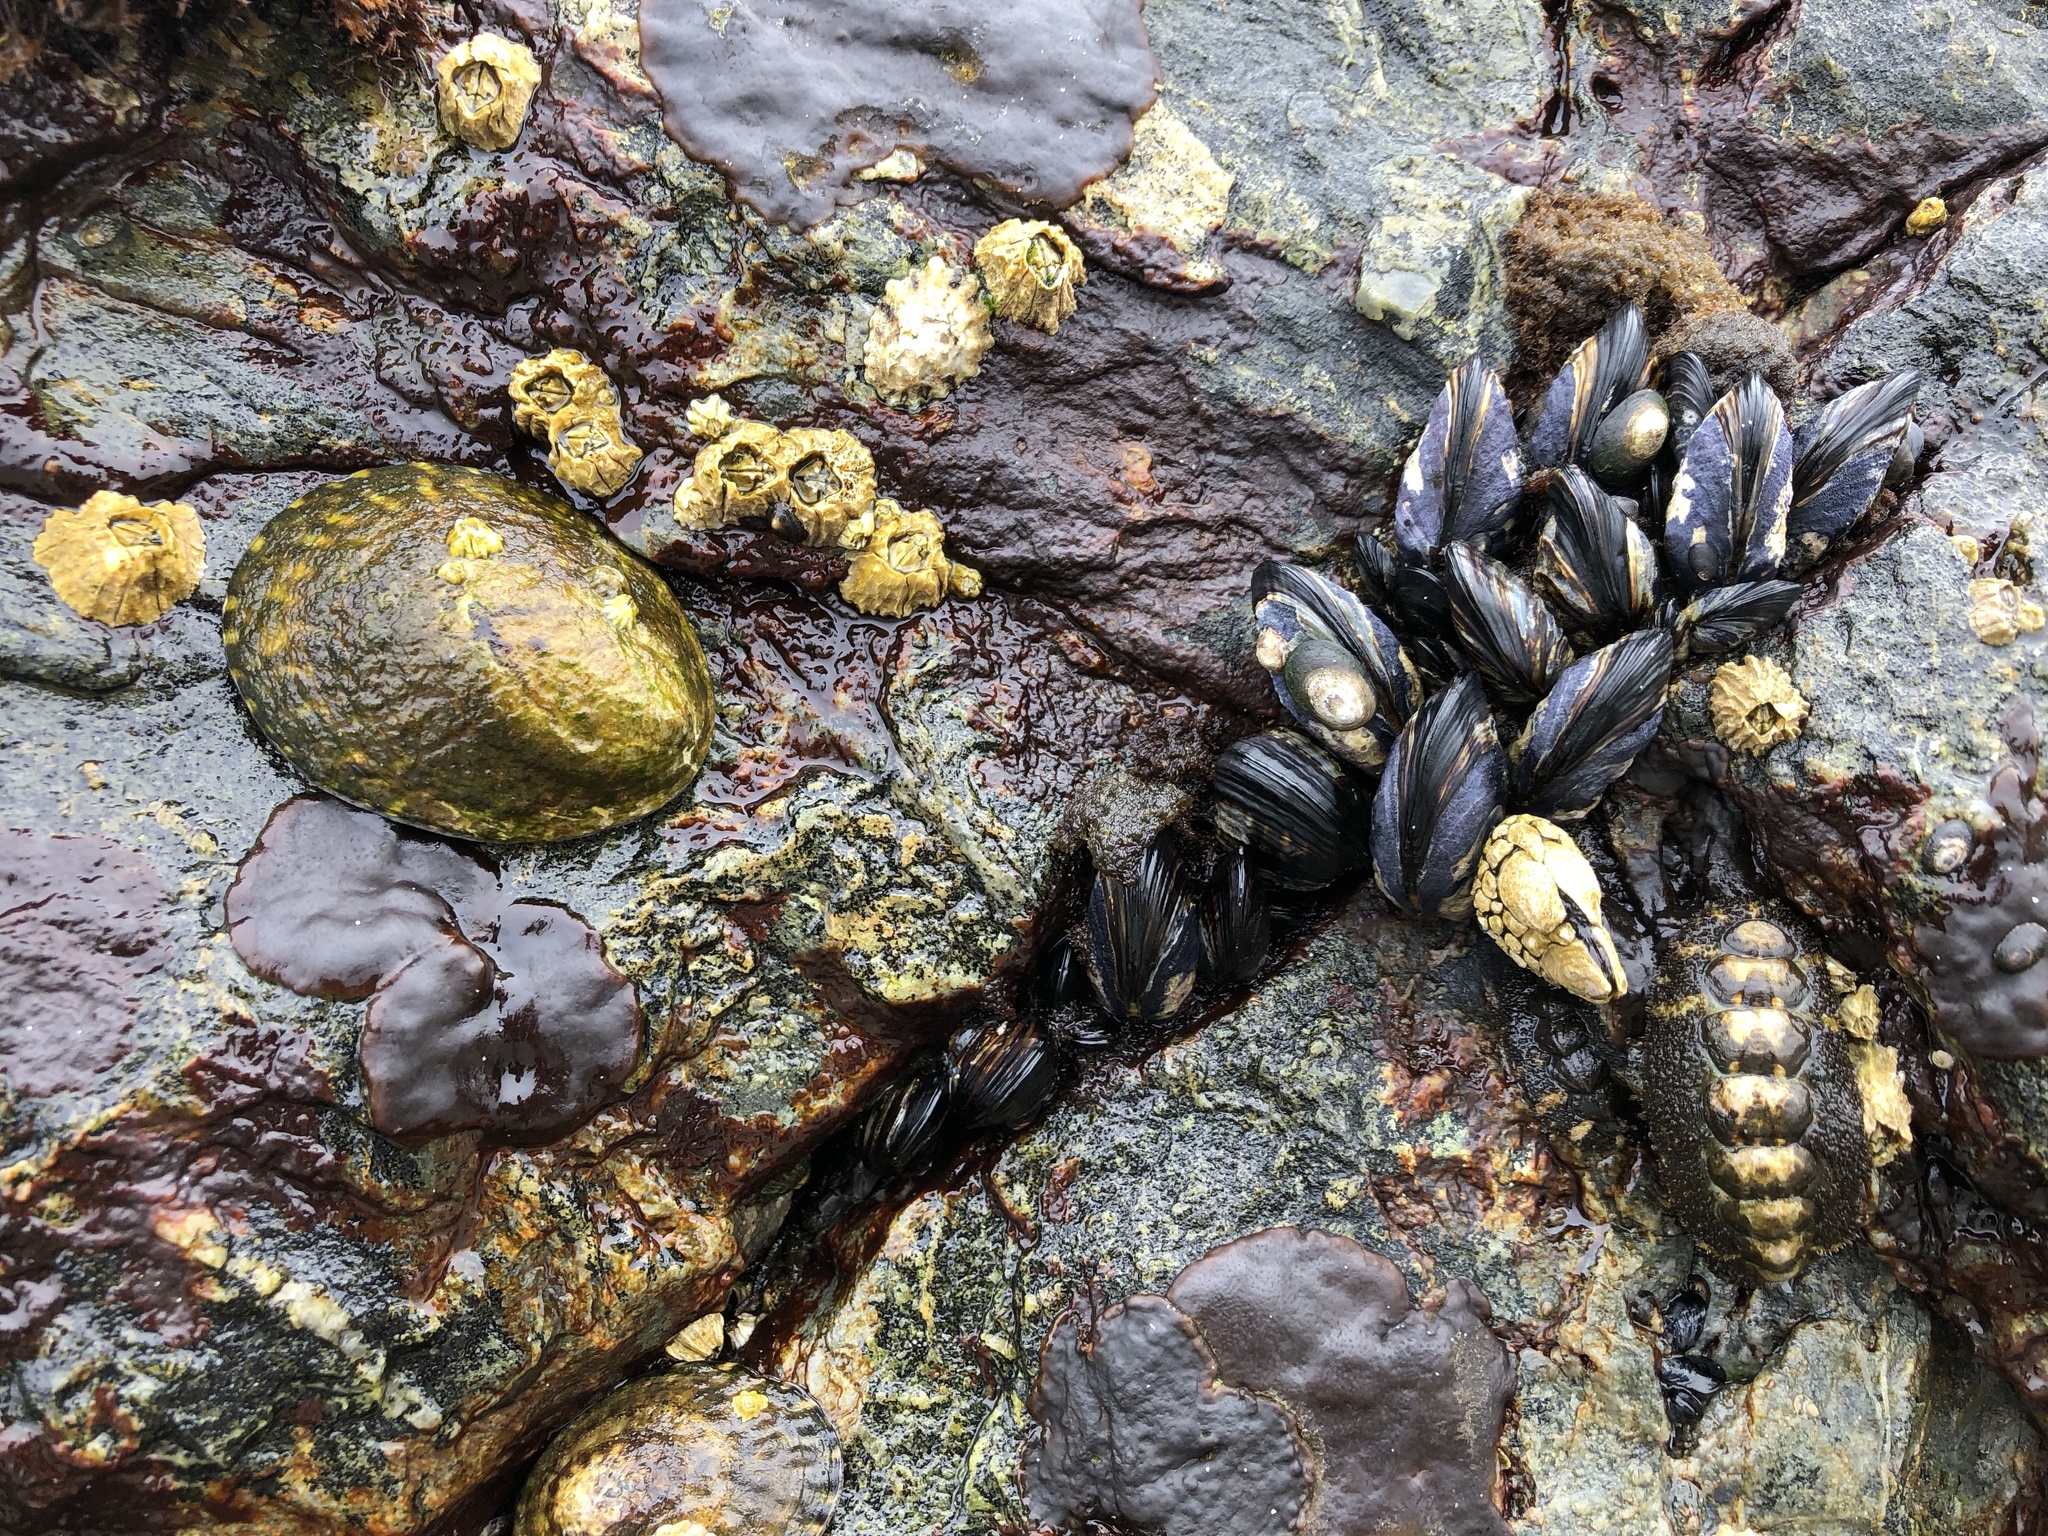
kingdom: Animalia
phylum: Mollusca
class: Gastropoda
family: Lottiidae
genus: Lottia
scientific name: Lottia gigantea
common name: Owl limpet
